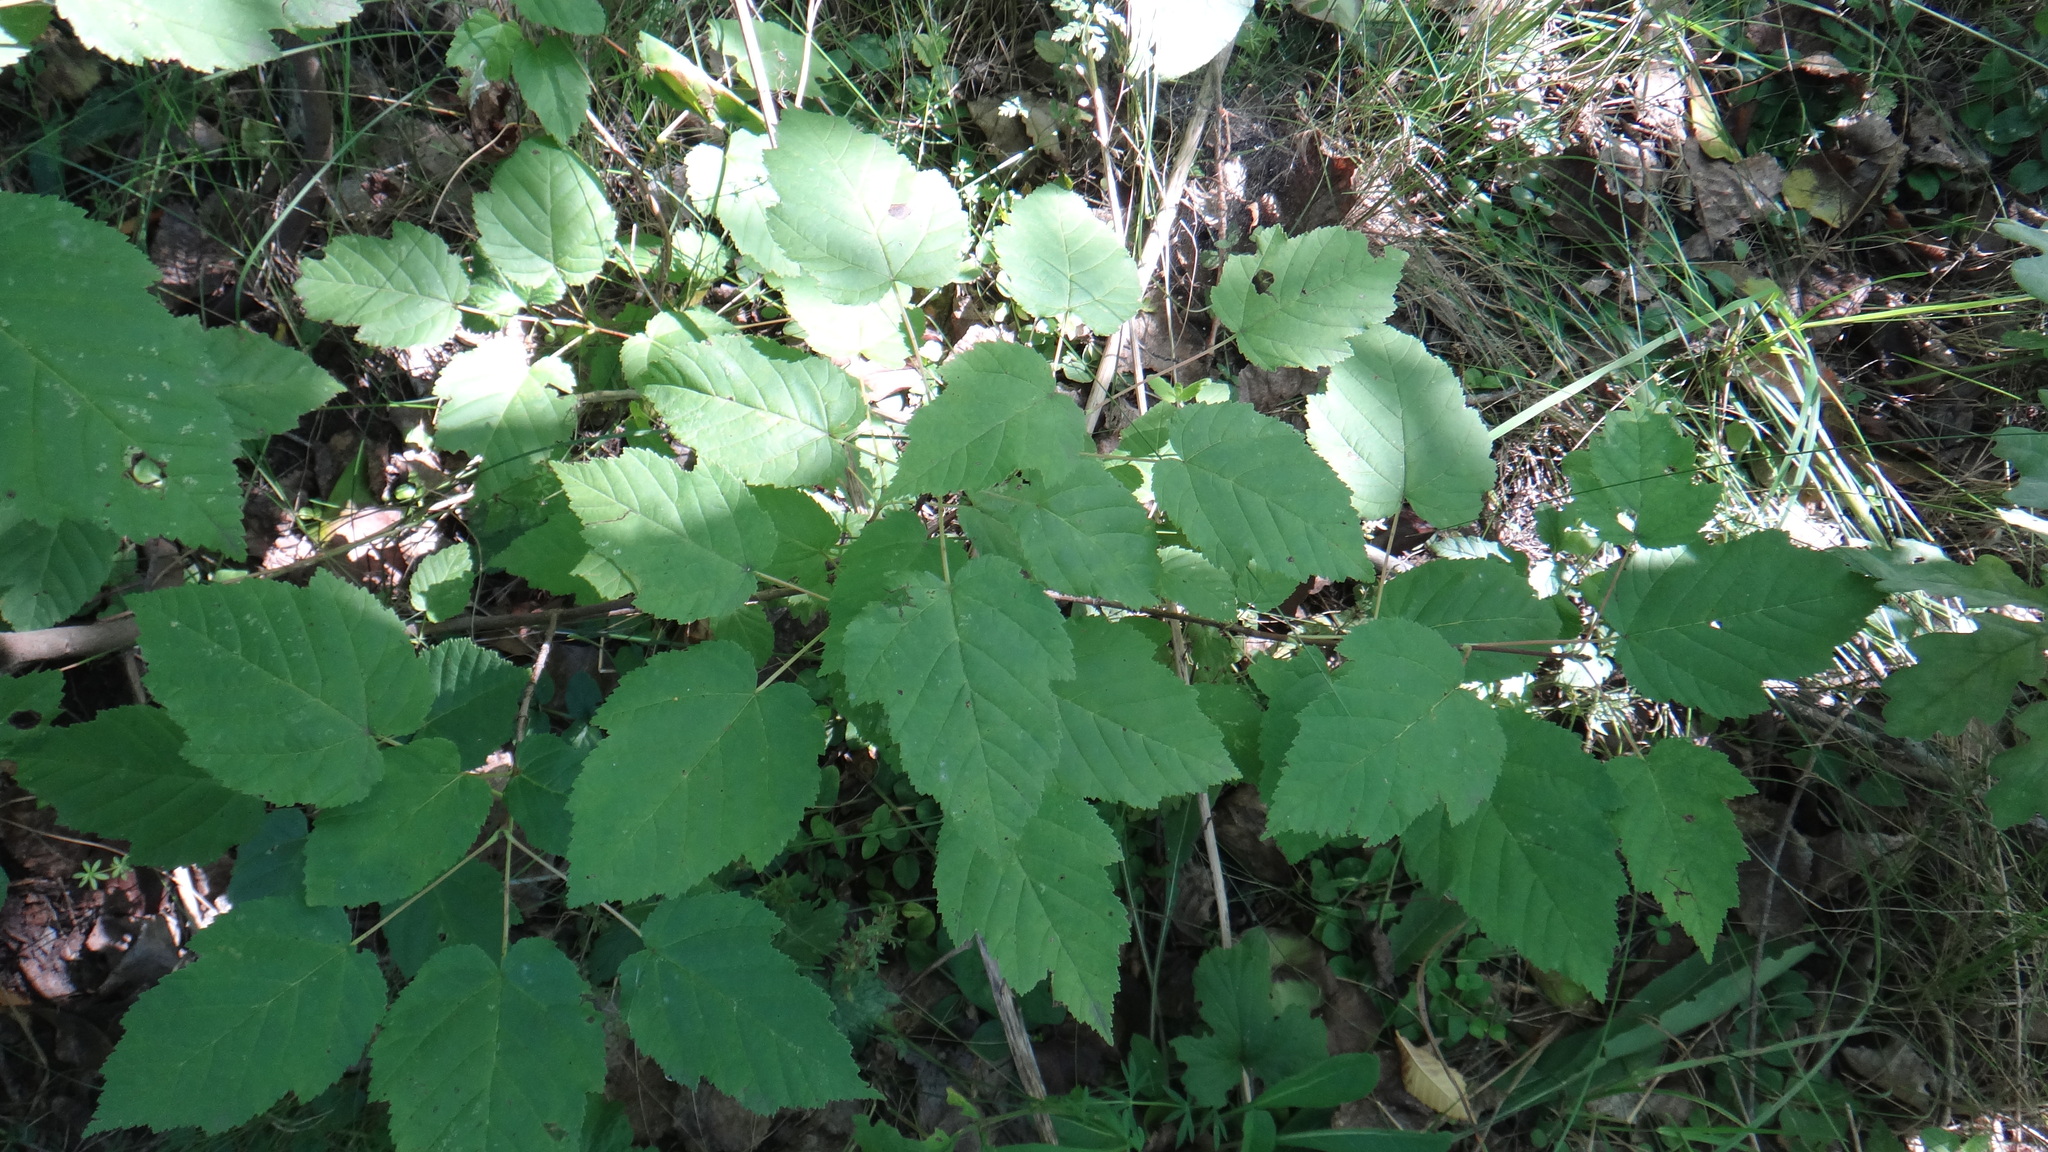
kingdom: Plantae
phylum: Tracheophyta
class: Magnoliopsida
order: Sapindales
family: Sapindaceae
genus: Acer
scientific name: Acer tataricum
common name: Tartar maple
